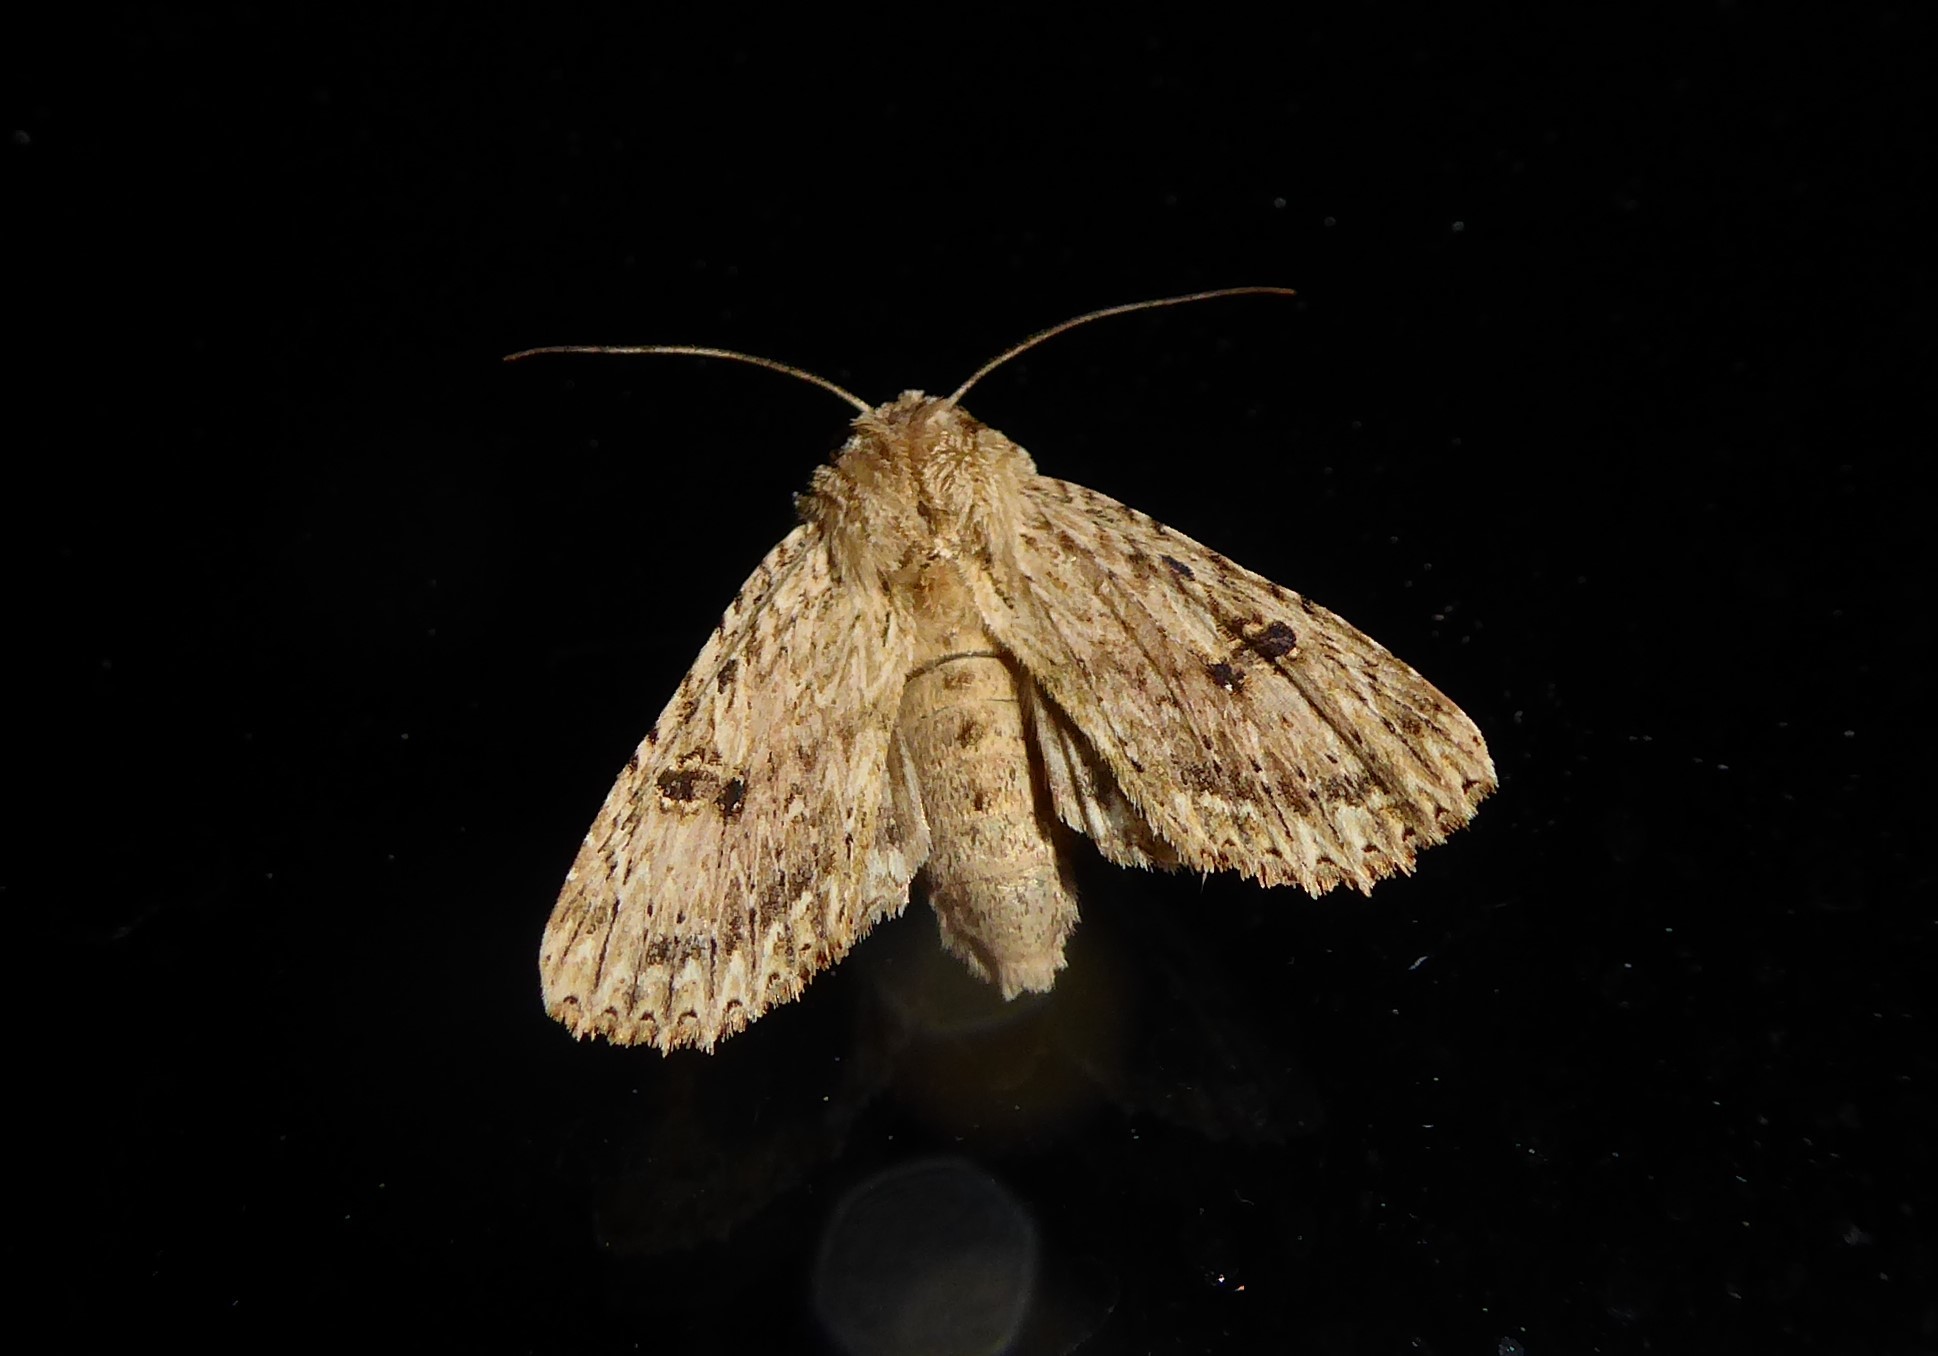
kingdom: Animalia
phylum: Arthropoda
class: Insecta
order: Lepidoptera
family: Noctuidae
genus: Meterana
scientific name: Meterana pansicolor
